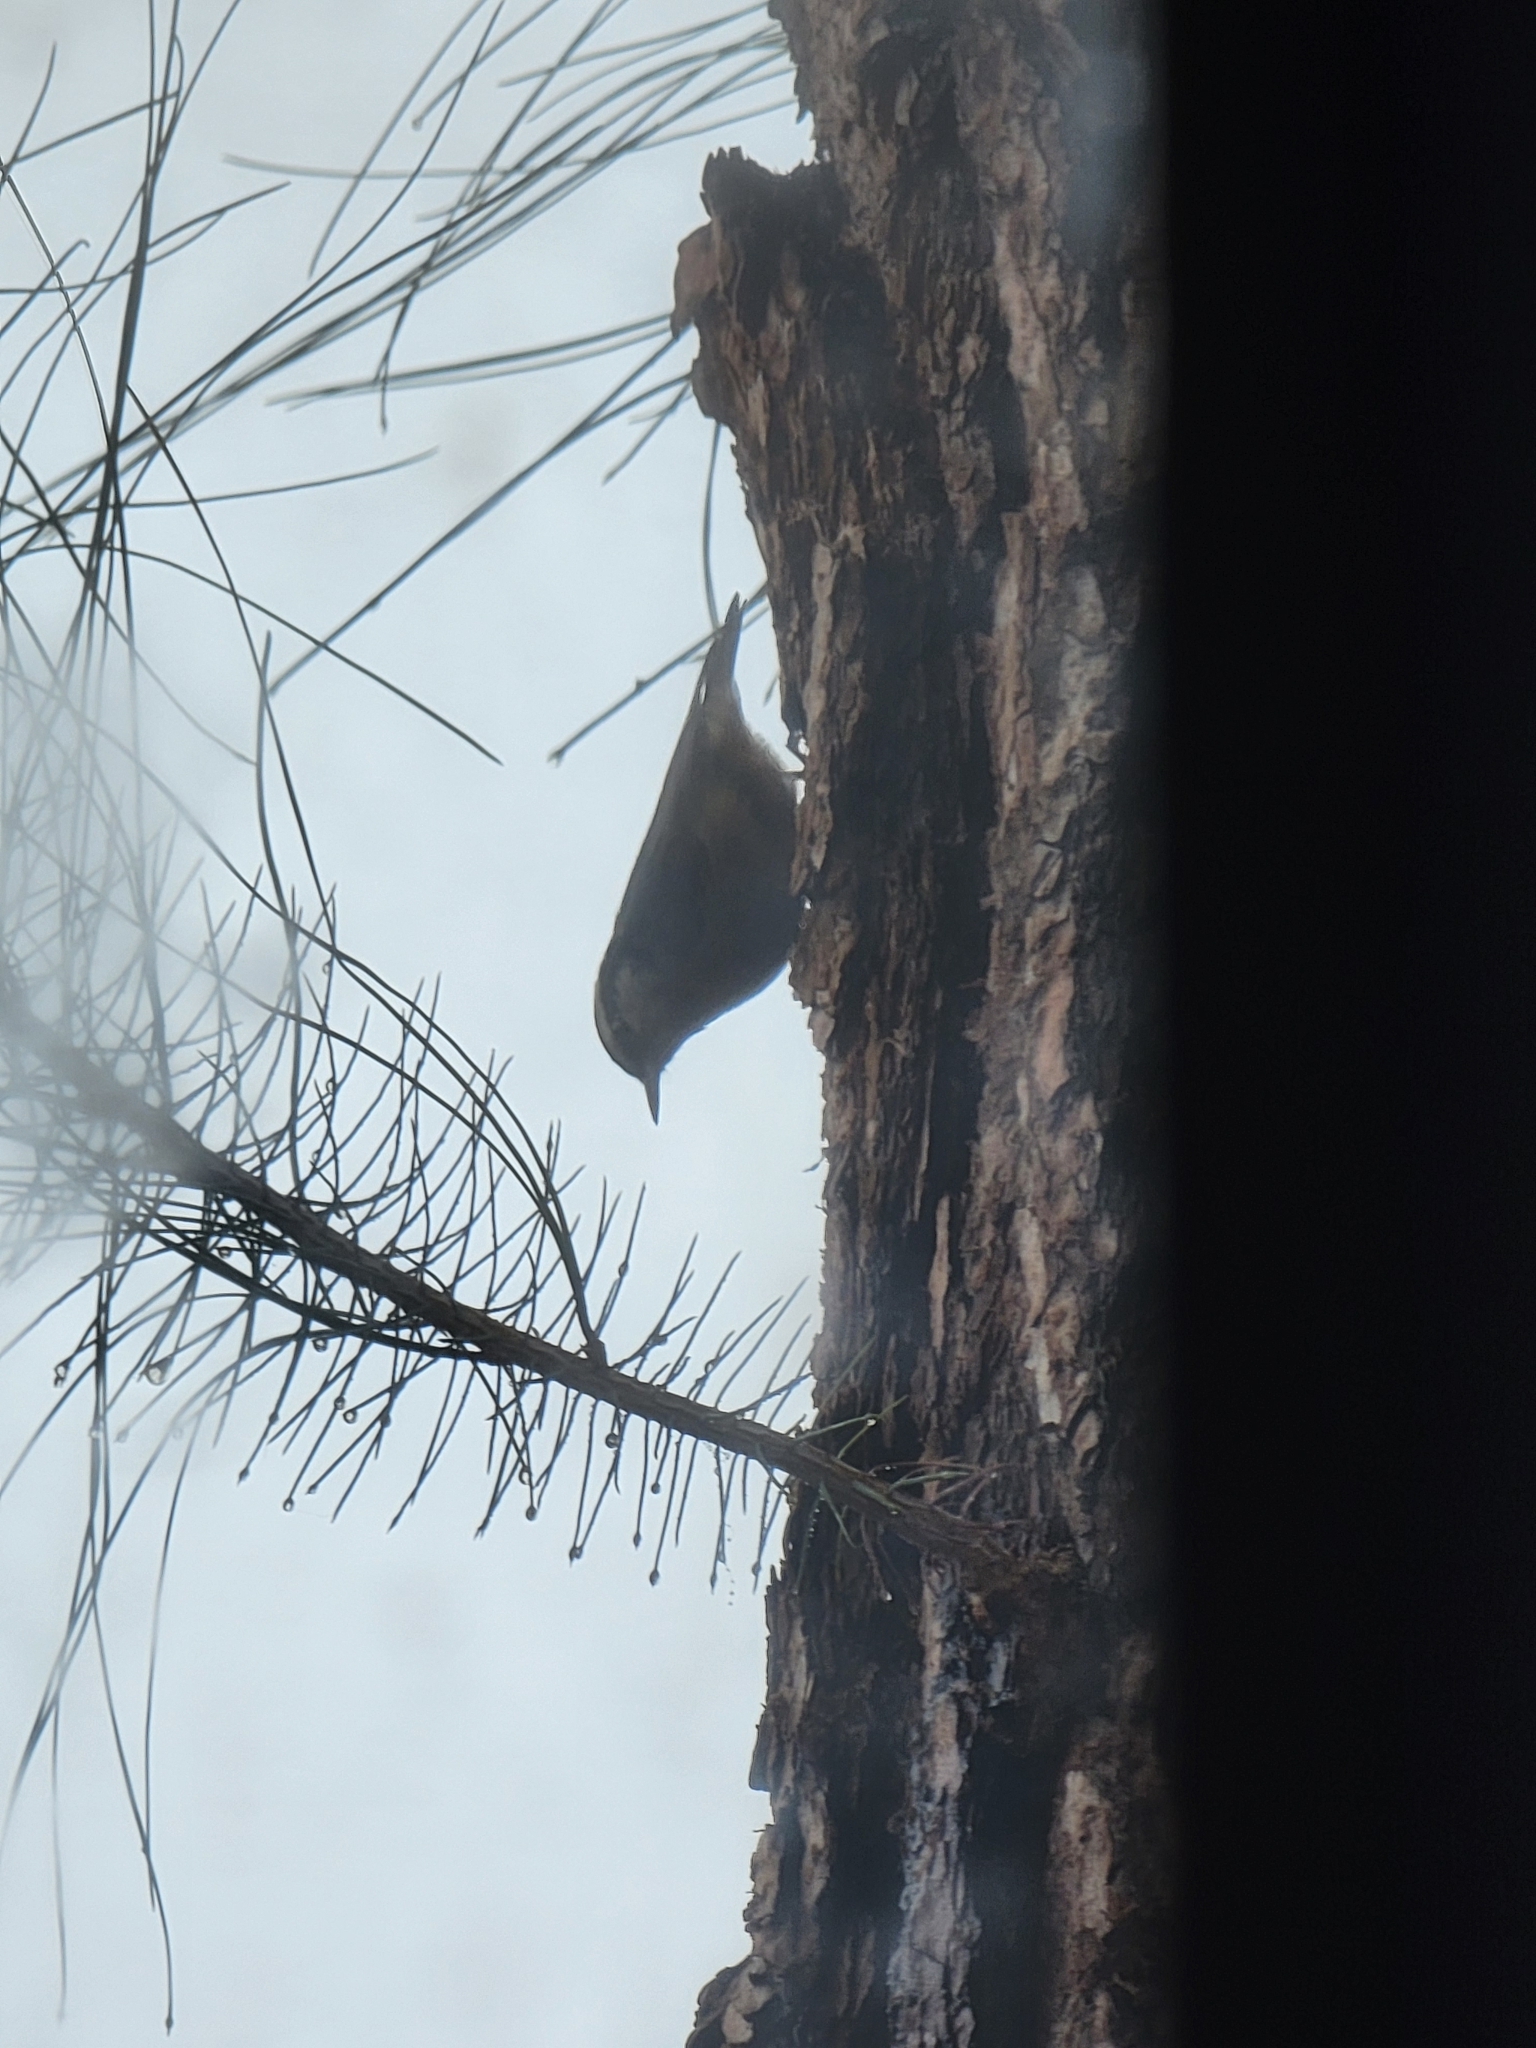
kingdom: Animalia
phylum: Chordata
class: Aves
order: Passeriformes
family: Sittidae
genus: Sitta
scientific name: Sitta canadensis
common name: Red-breasted nuthatch
